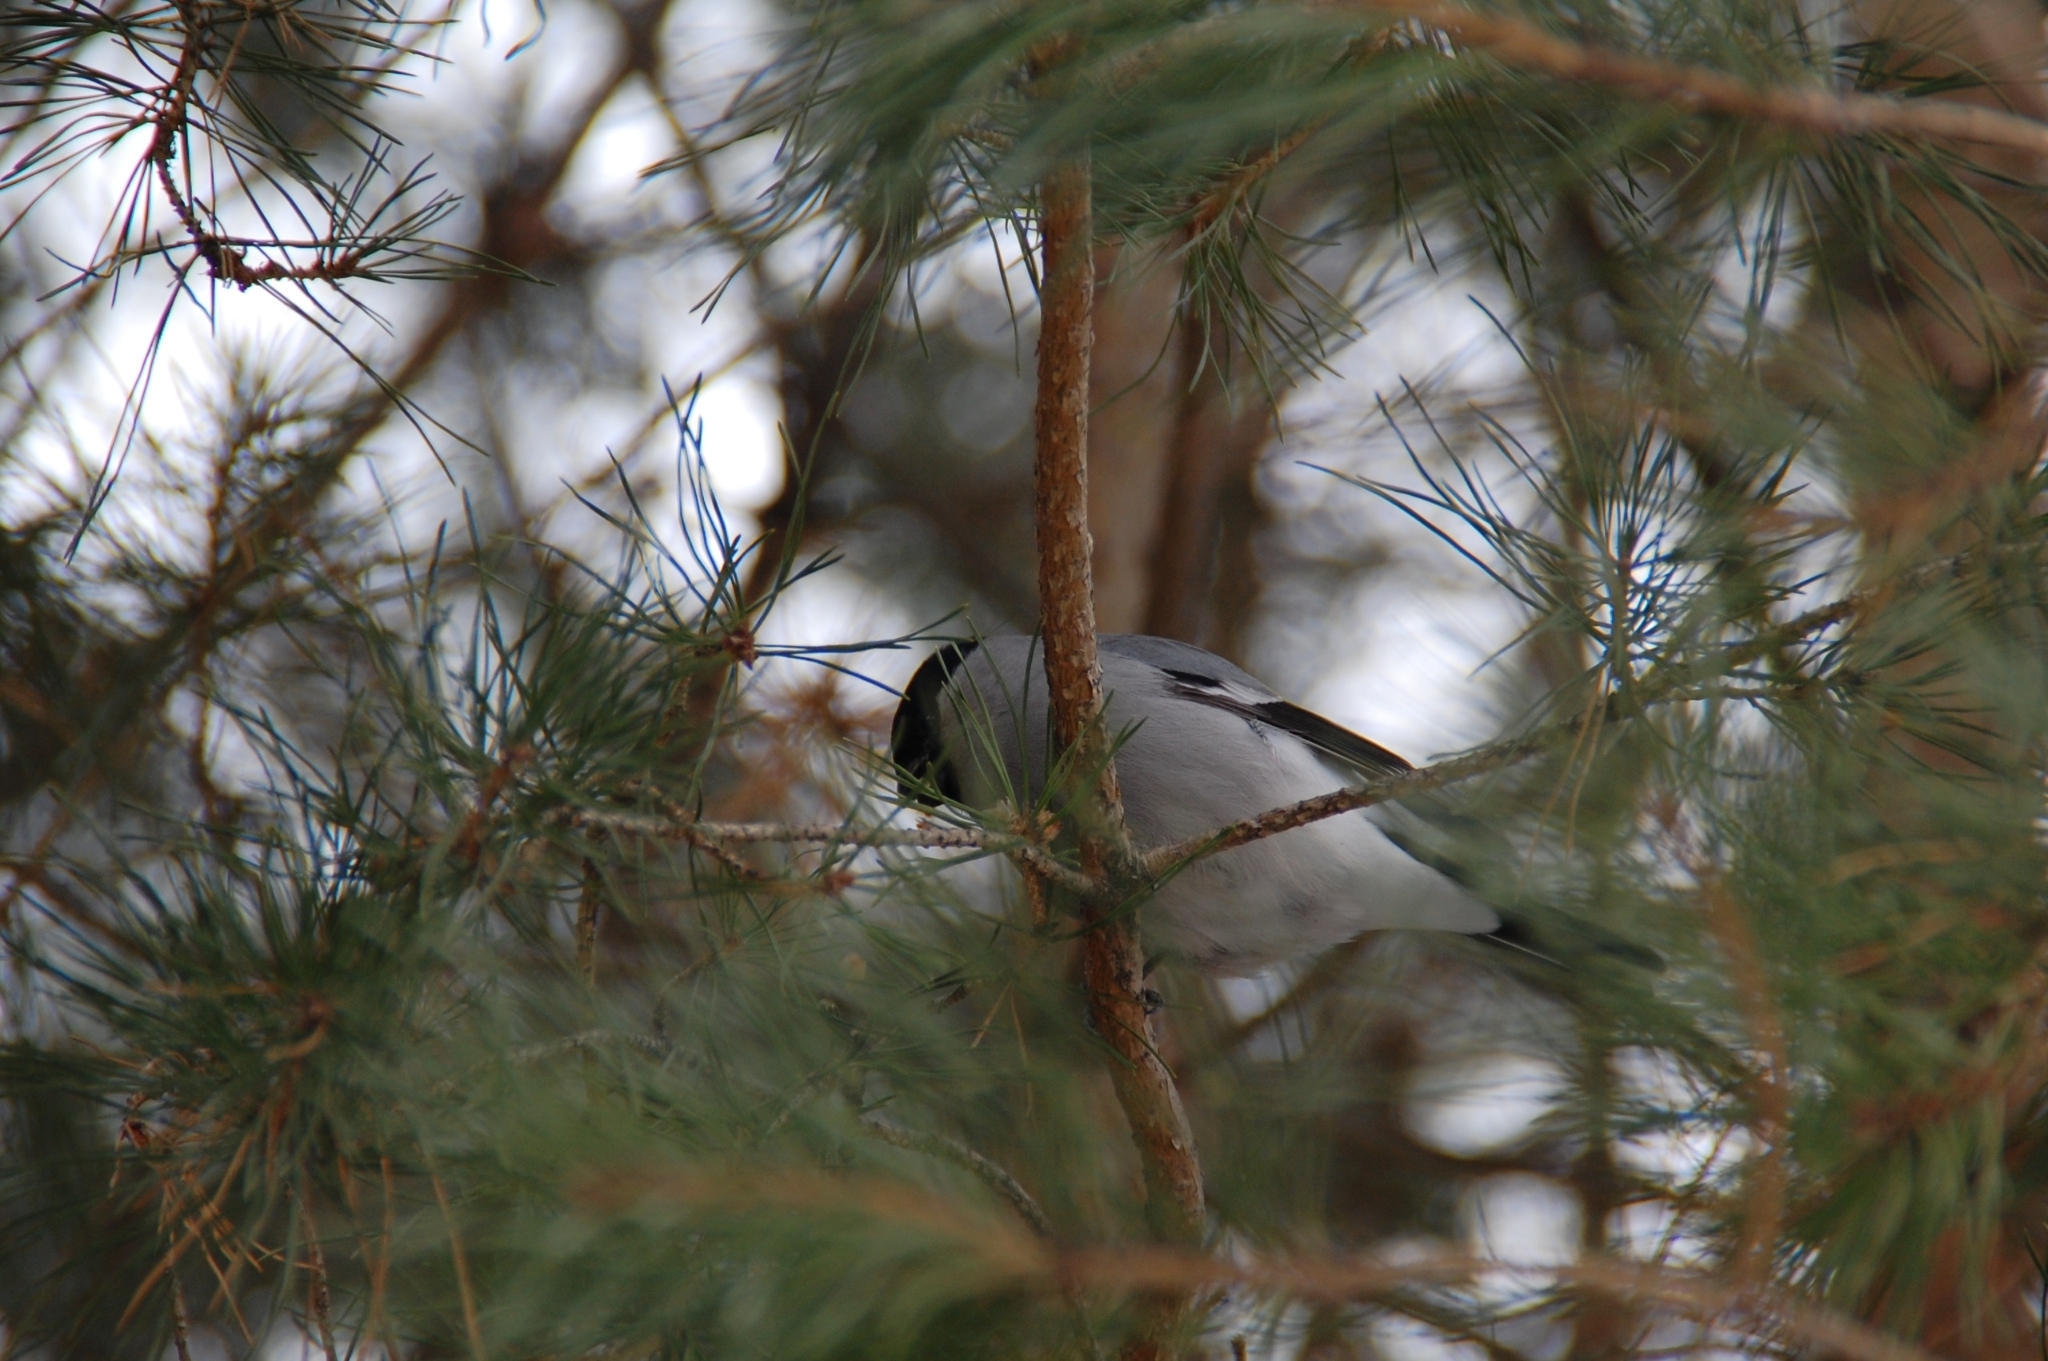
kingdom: Animalia
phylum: Chordata
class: Aves
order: Passeriformes
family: Fringillidae
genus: Pyrrhula
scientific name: Pyrrhula pyrrhula
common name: Eurasian bullfinch
